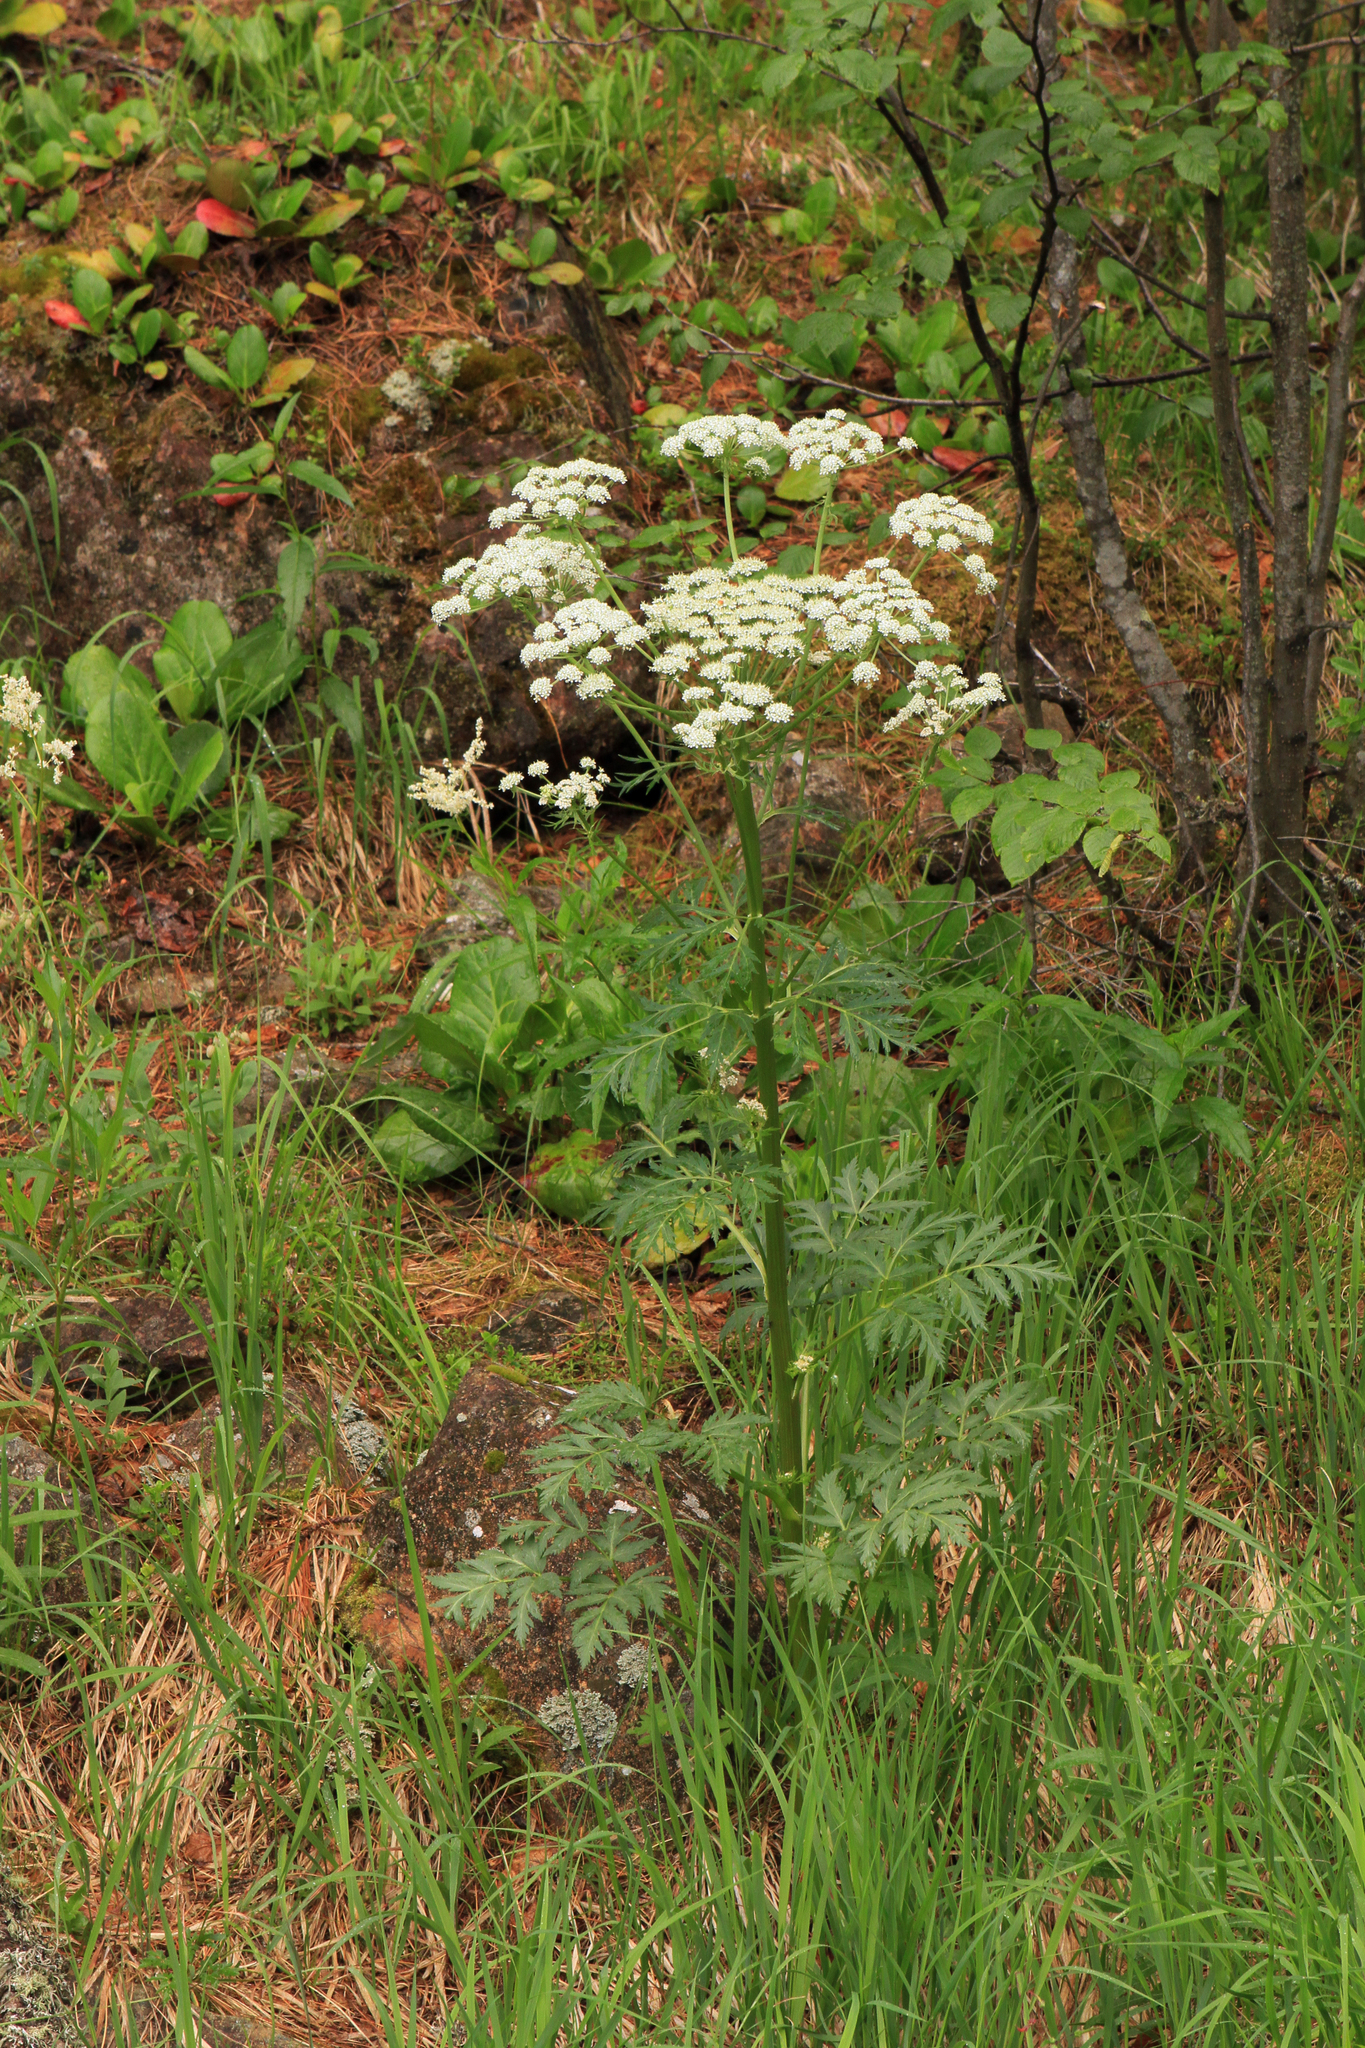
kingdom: Plantae
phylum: Tracheophyta
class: Magnoliopsida
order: Apiales
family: Apiaceae
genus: Pleurospermum
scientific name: Pleurospermum uralense
